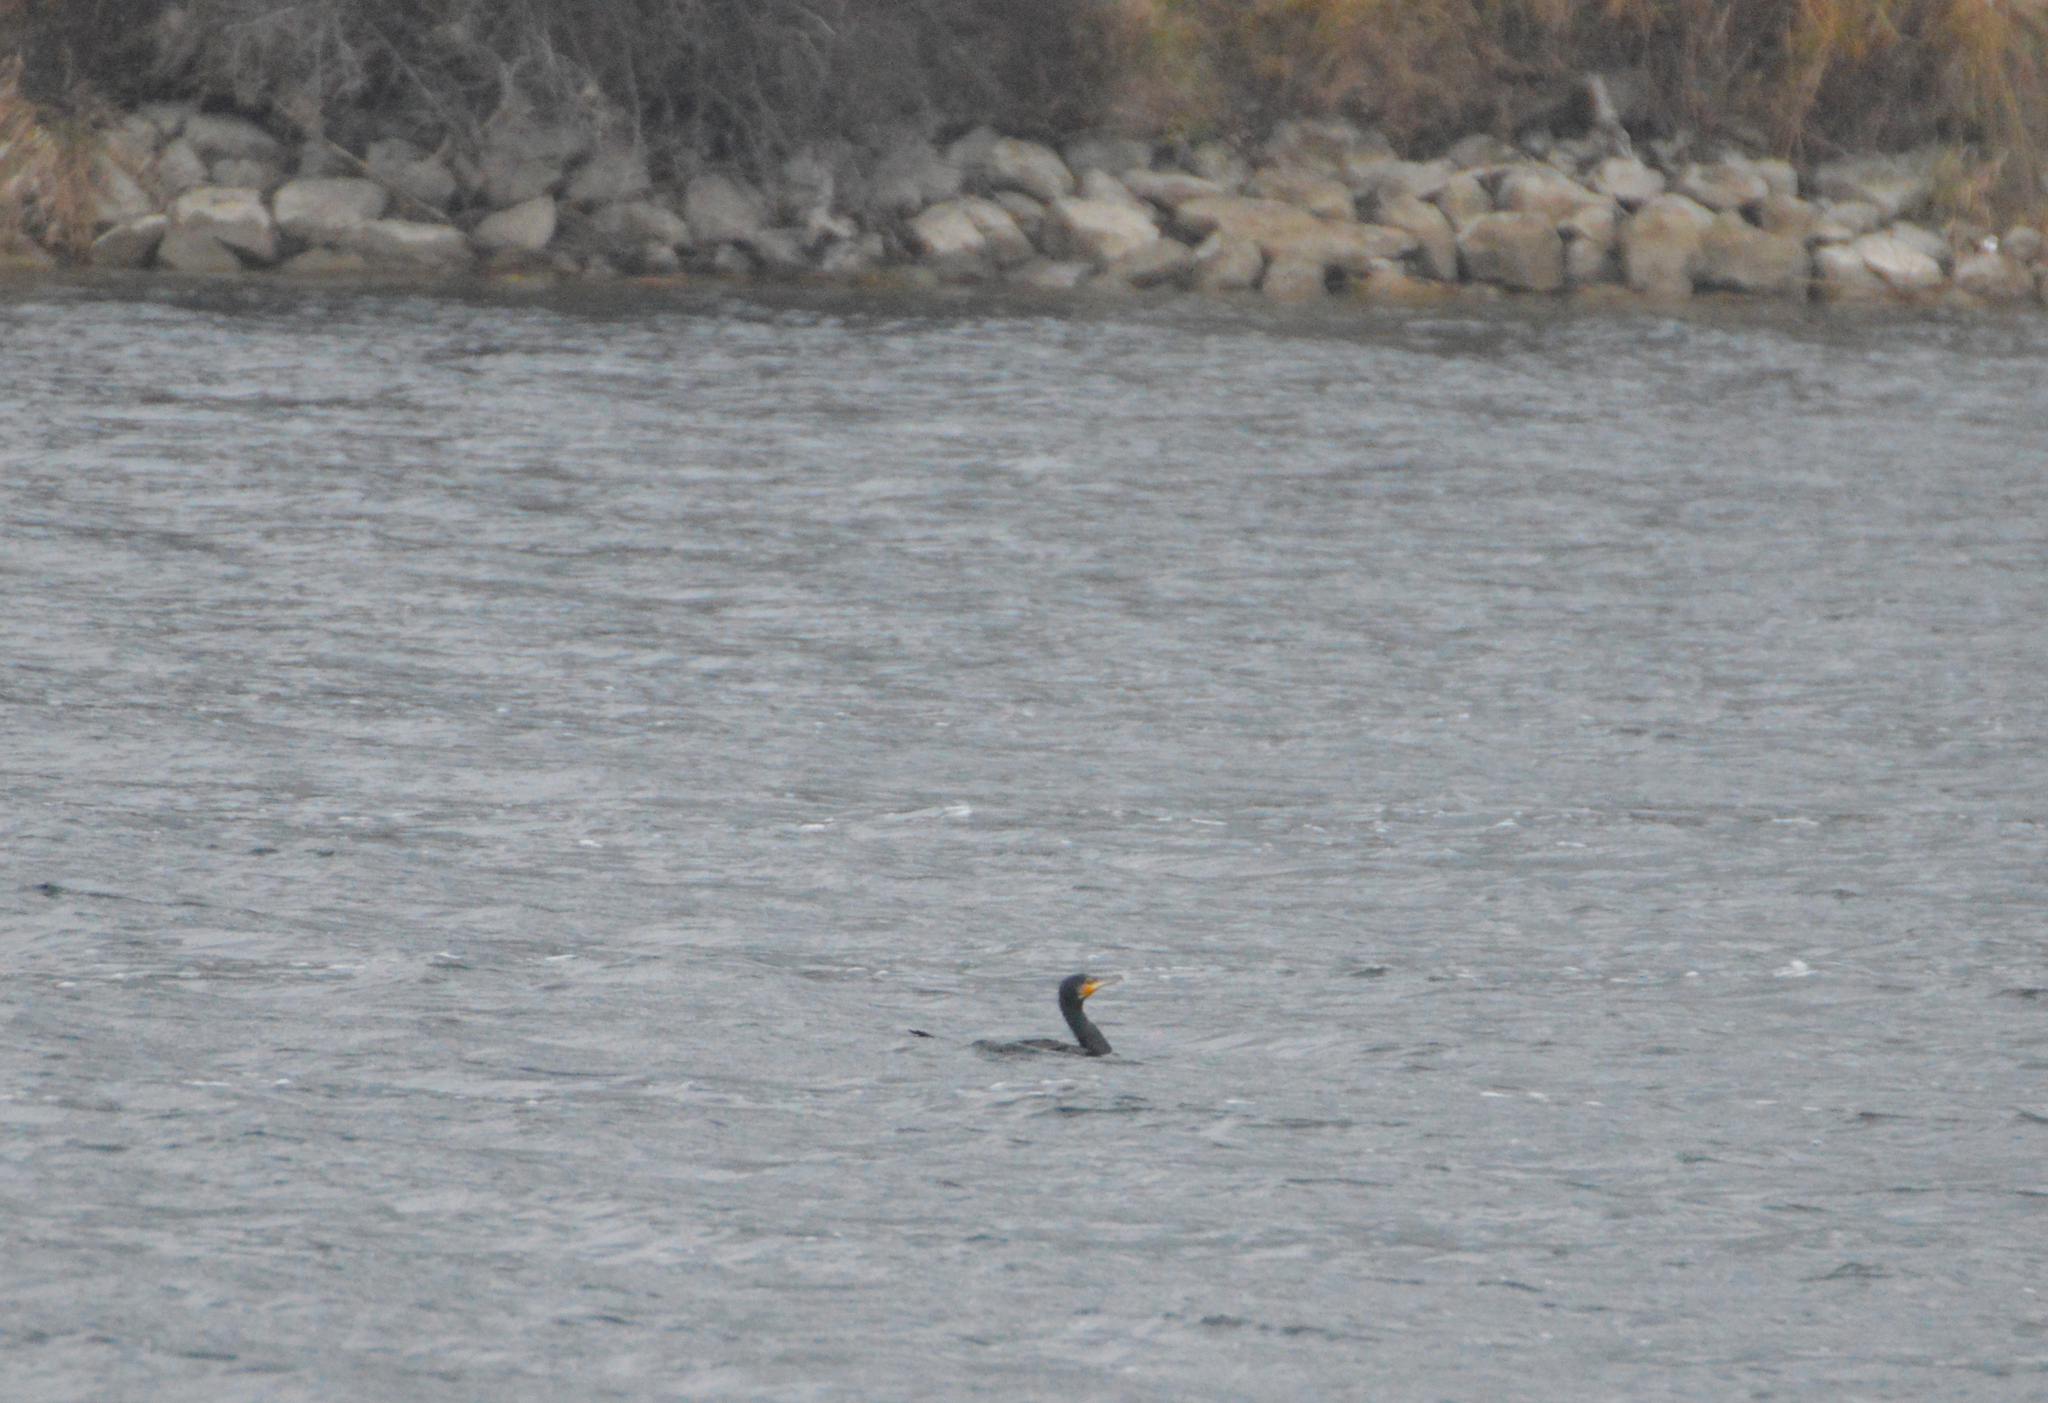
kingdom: Animalia
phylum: Chordata
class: Aves
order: Suliformes
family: Phalacrocoracidae
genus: Phalacrocorax
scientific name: Phalacrocorax carbo
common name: Great cormorant
